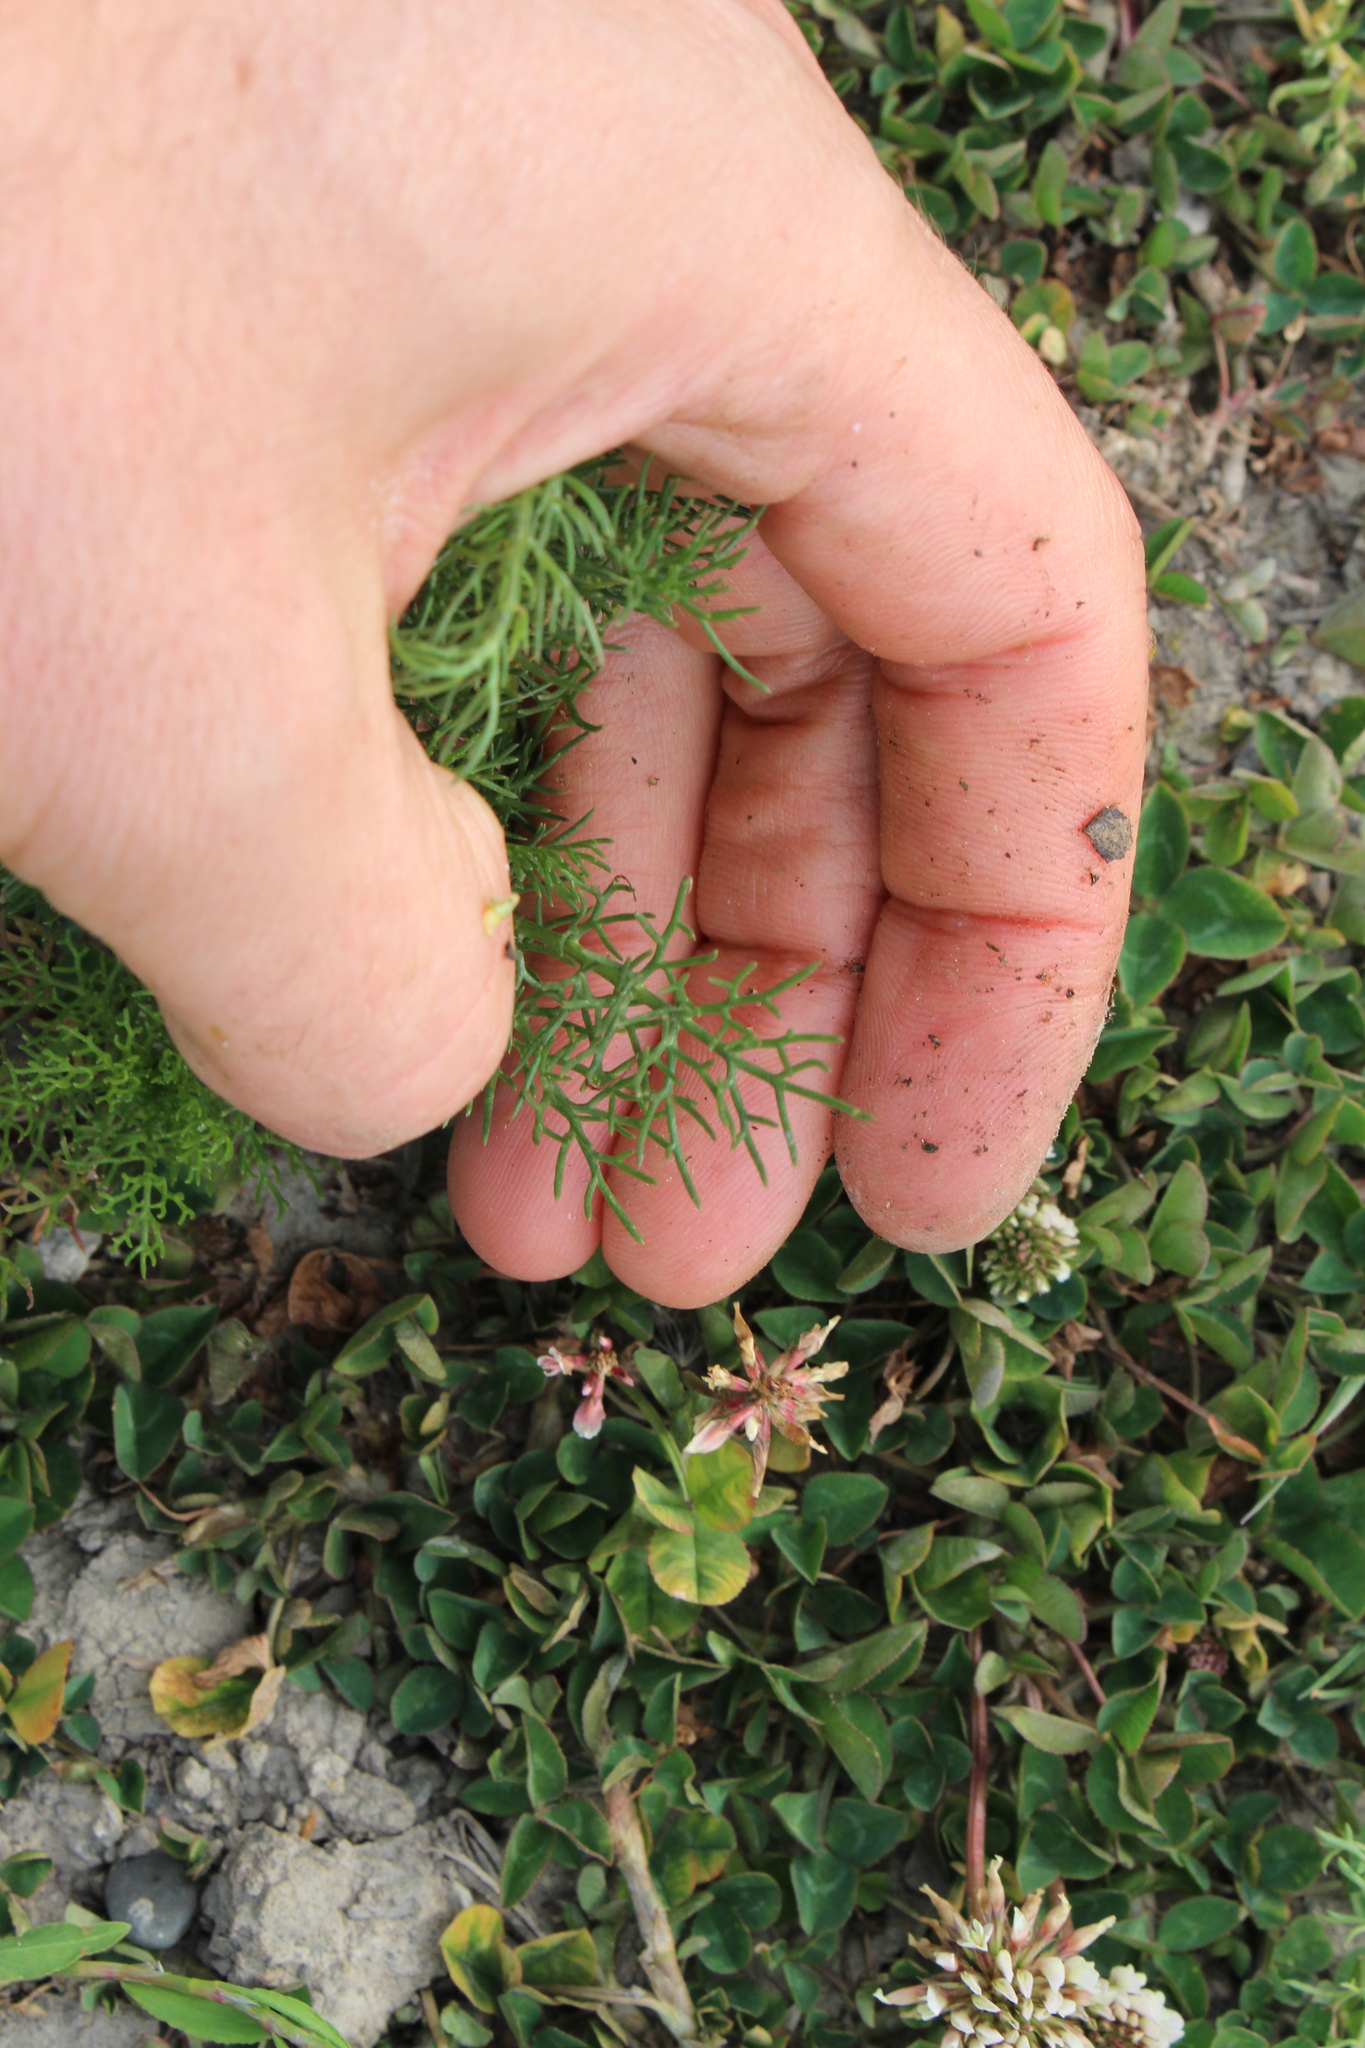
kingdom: Plantae
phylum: Tracheophyta
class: Magnoliopsida
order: Asterales
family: Asteraceae
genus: Anthemis
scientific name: Anthemis cotula
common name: Stinking chamomile
